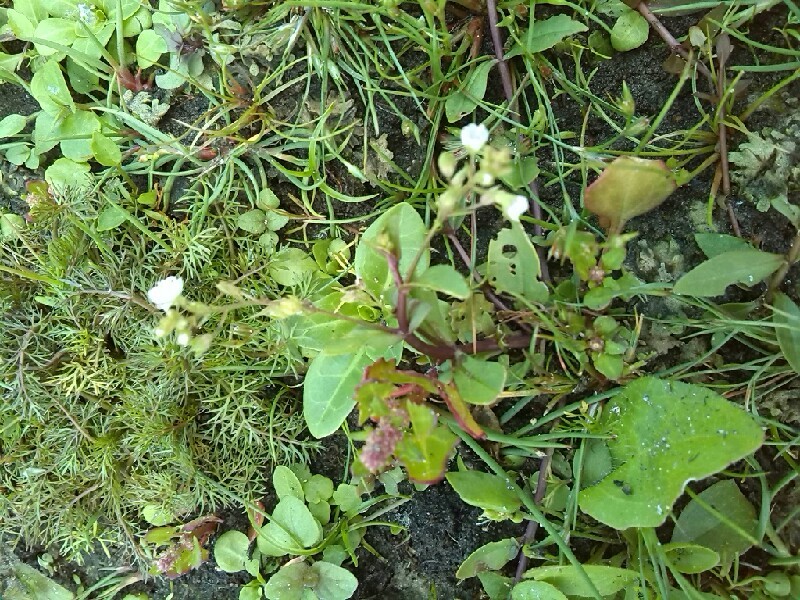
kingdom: Plantae
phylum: Tracheophyta
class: Magnoliopsida
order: Lamiales
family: Plantaginaceae
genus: Veronica
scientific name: Veronica beccabunga
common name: Brooklime
